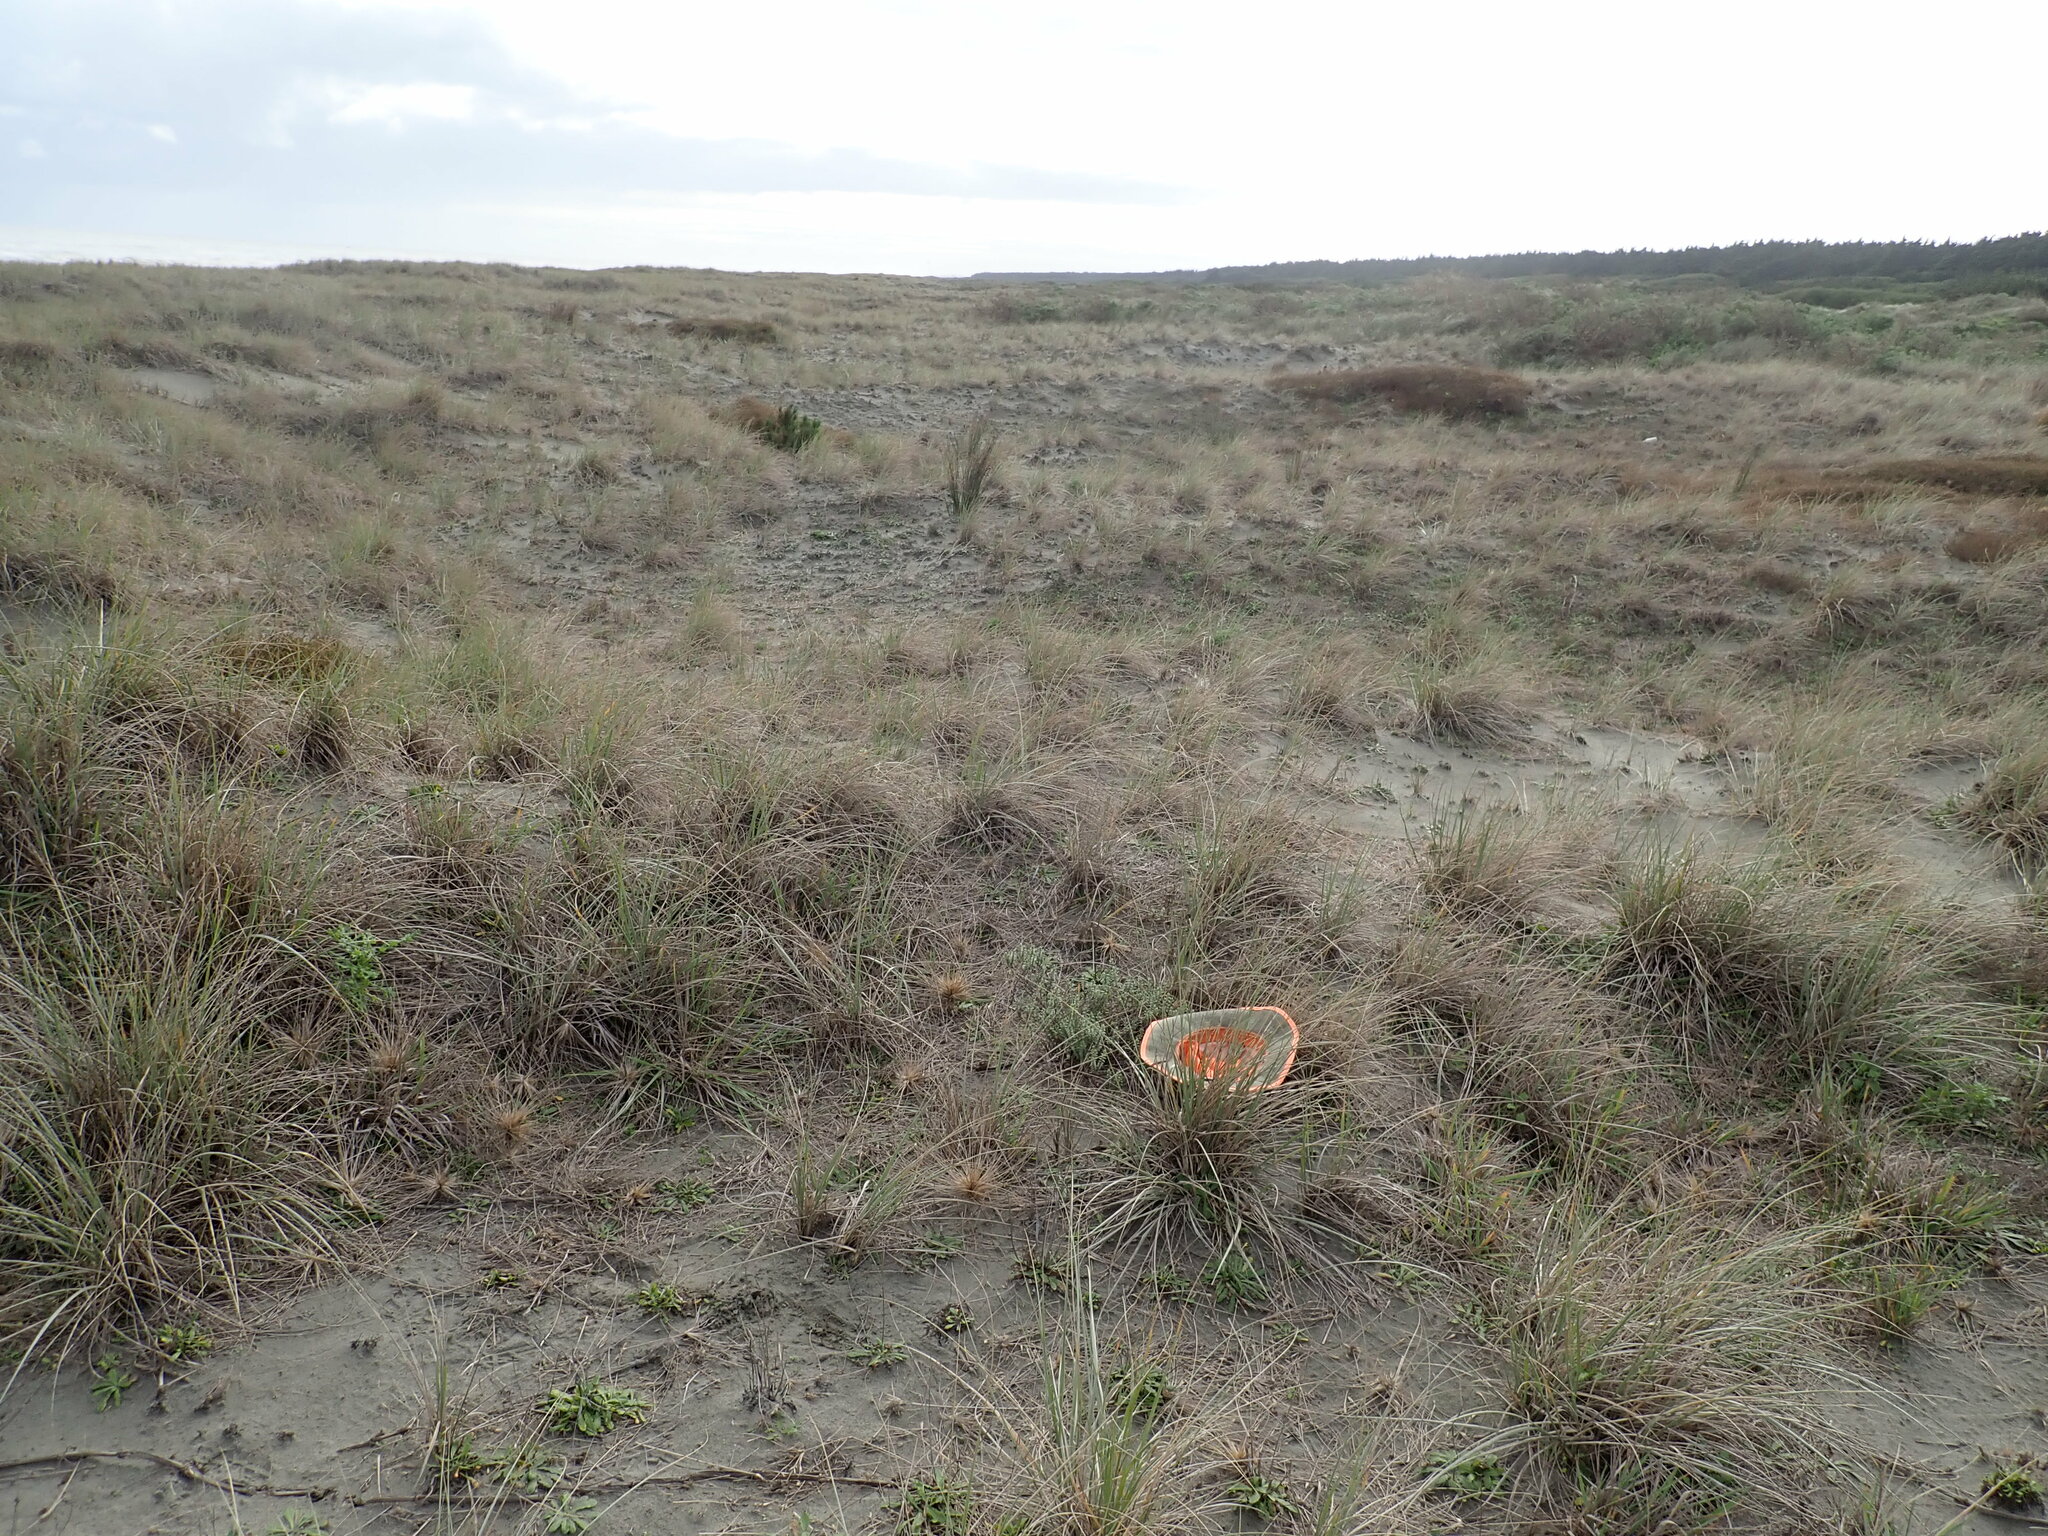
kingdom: Plantae
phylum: Tracheophyta
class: Magnoliopsida
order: Malvales
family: Thymelaeaceae
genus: Pimelea
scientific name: Pimelea villosa
